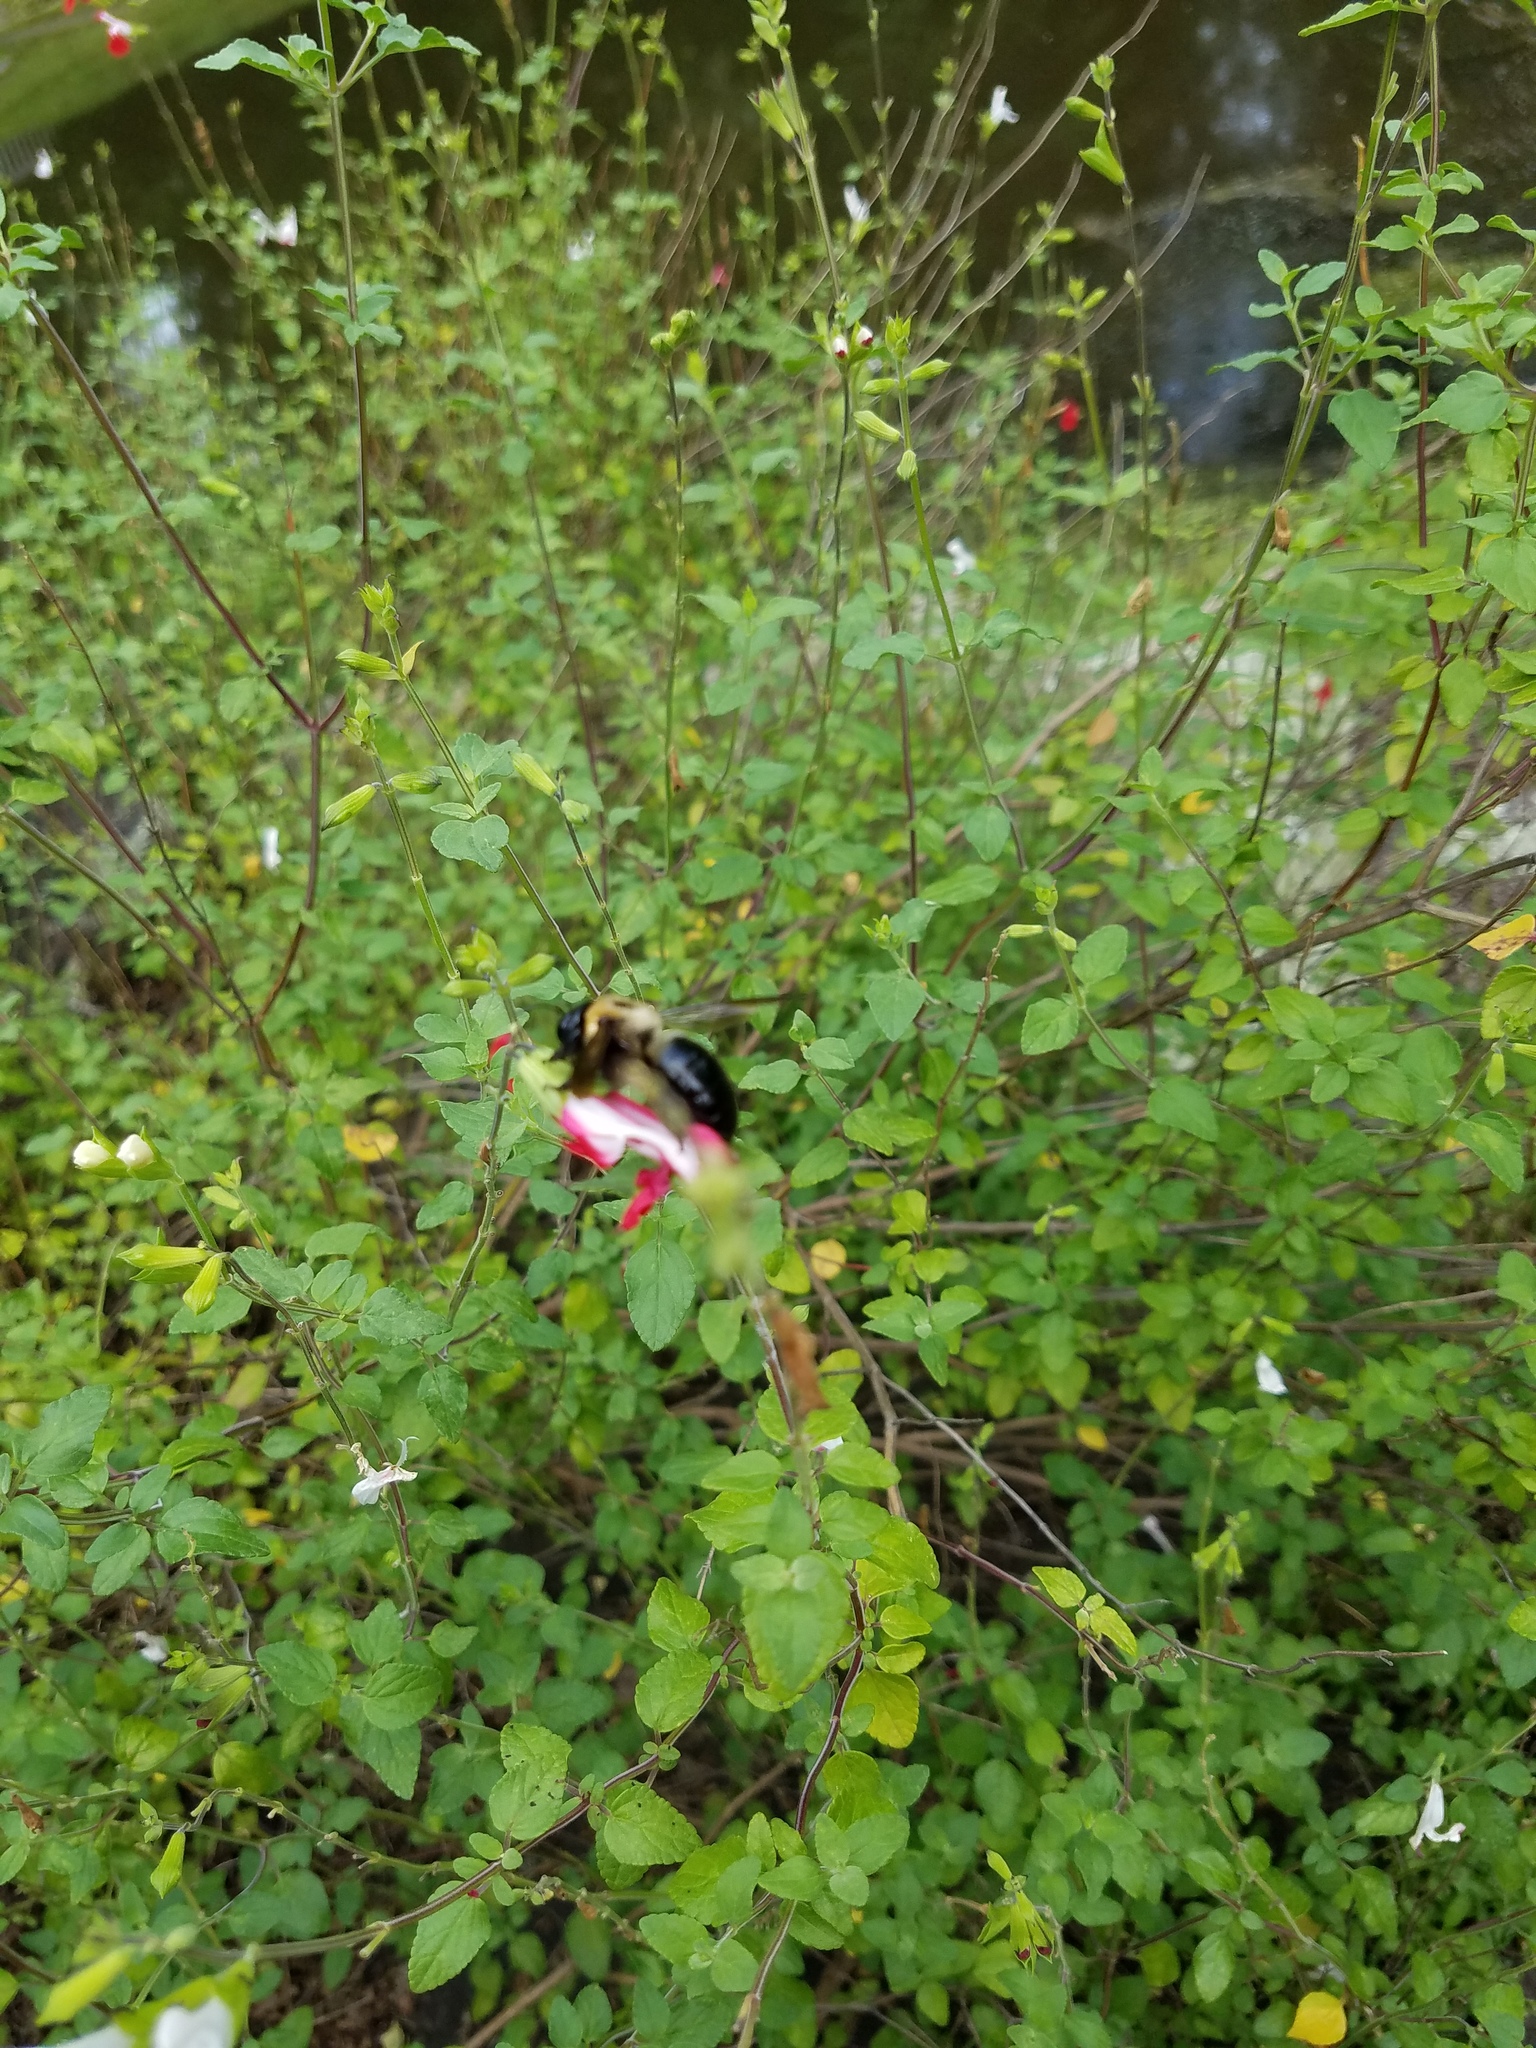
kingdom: Animalia
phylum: Arthropoda
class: Insecta
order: Hymenoptera
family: Apidae
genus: Xylocopa
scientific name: Xylocopa virginica
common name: Carpenter bee
